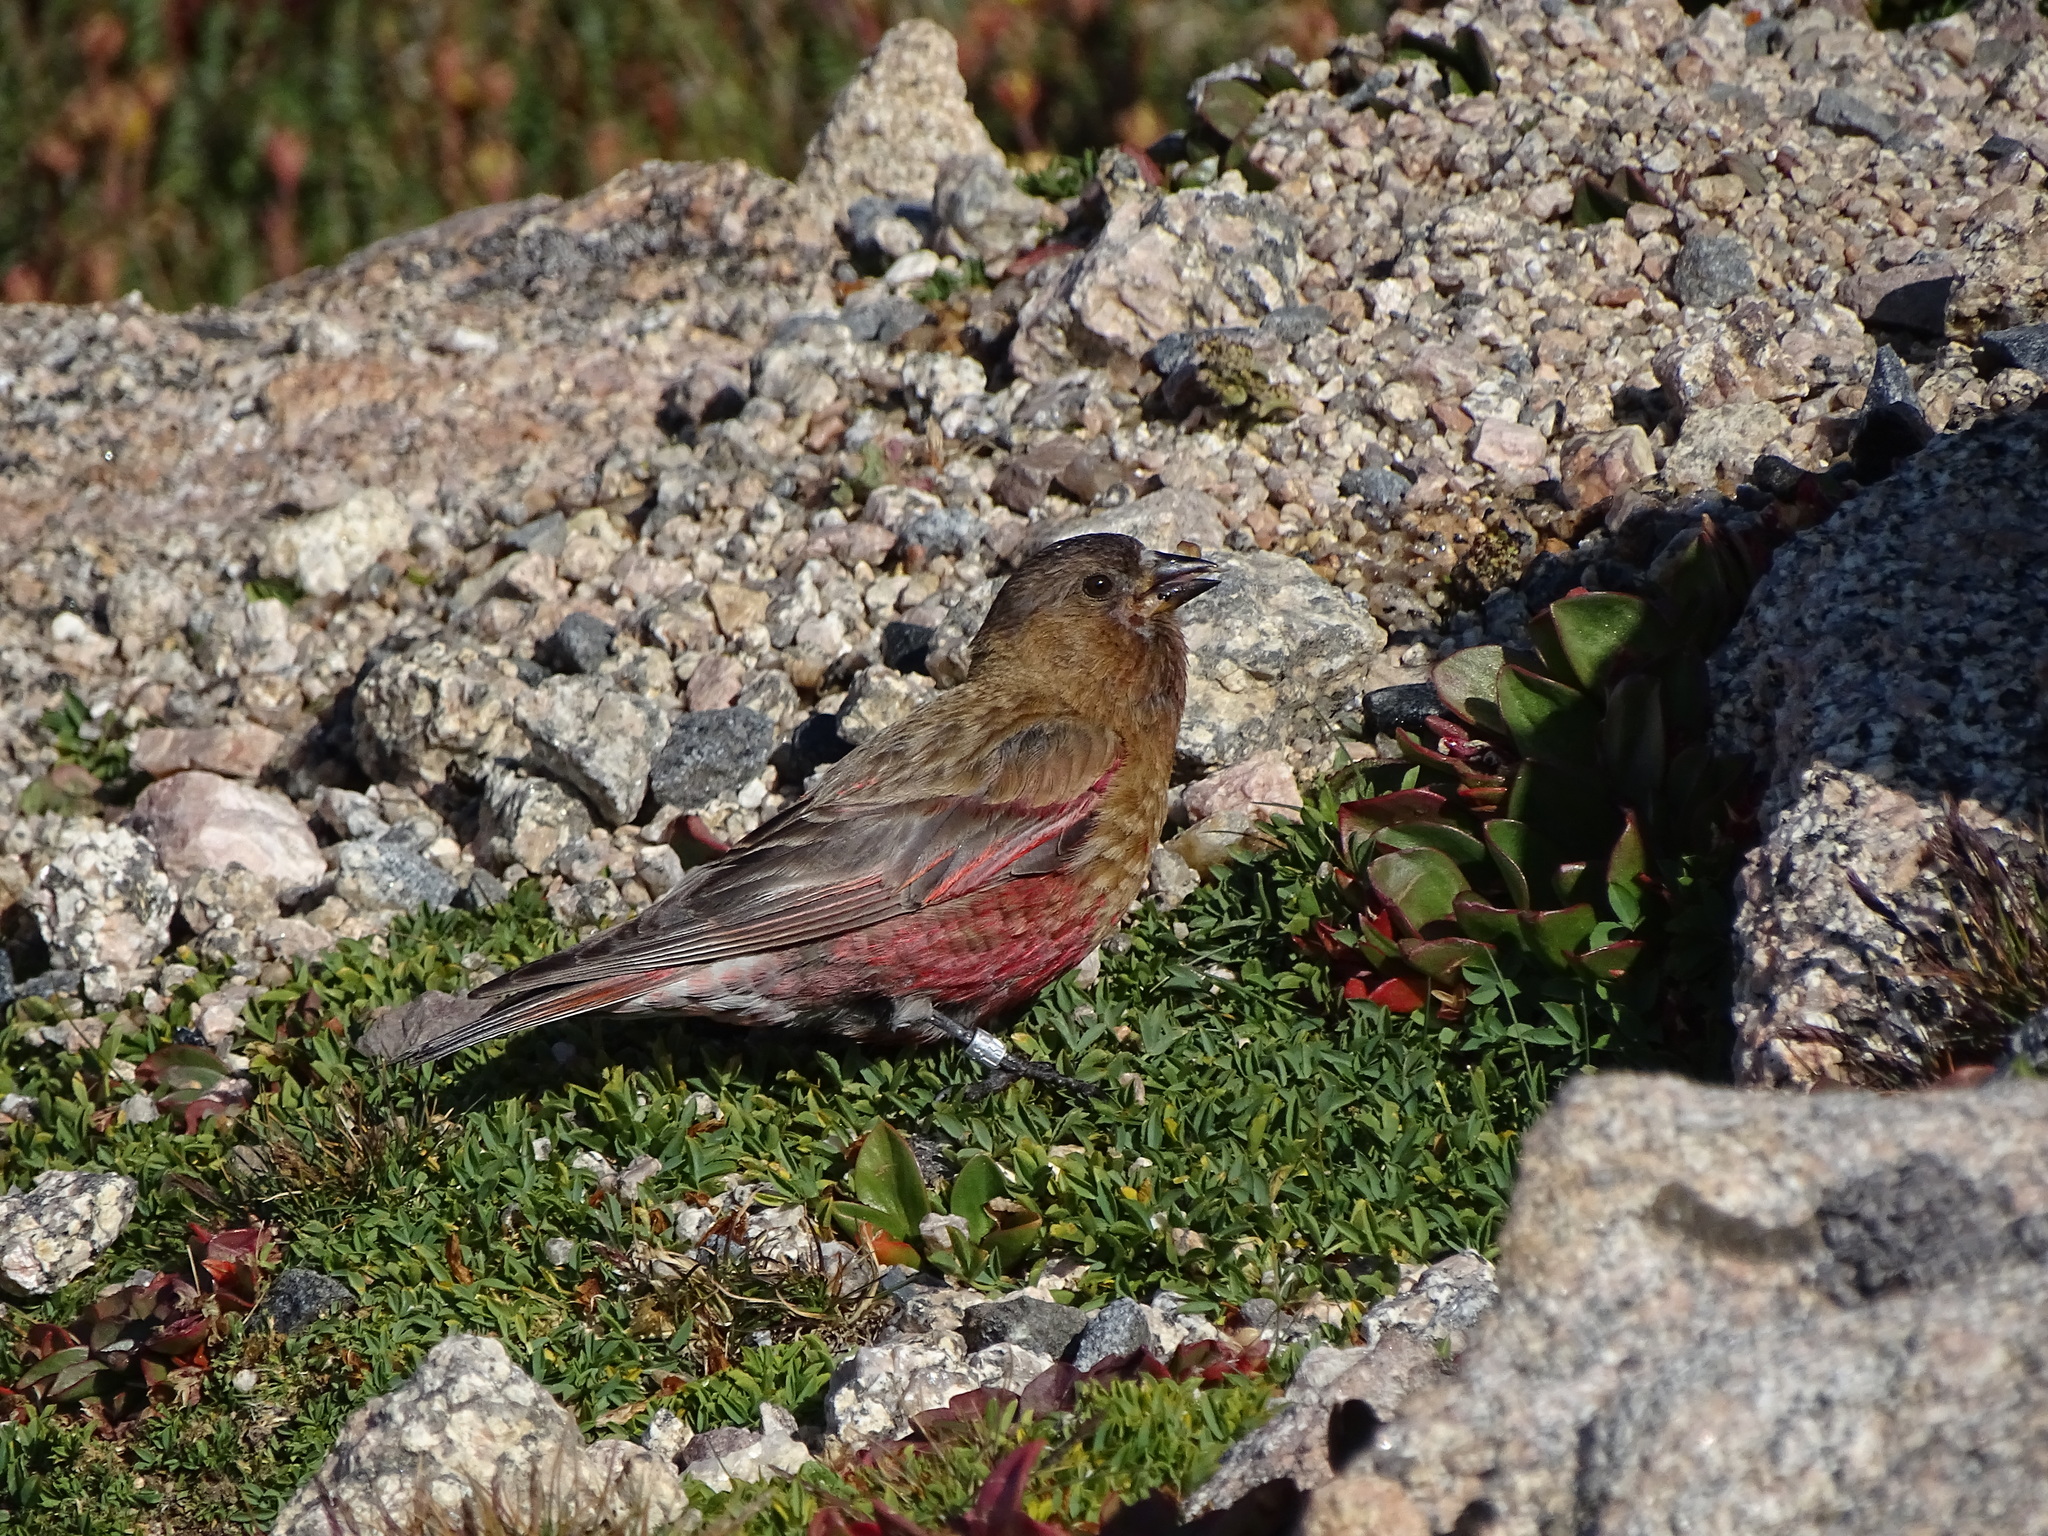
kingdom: Animalia
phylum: Chordata
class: Aves
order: Passeriformes
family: Fringillidae
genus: Leucosticte
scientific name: Leucosticte australis
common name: Brown-capped rosy-finch
